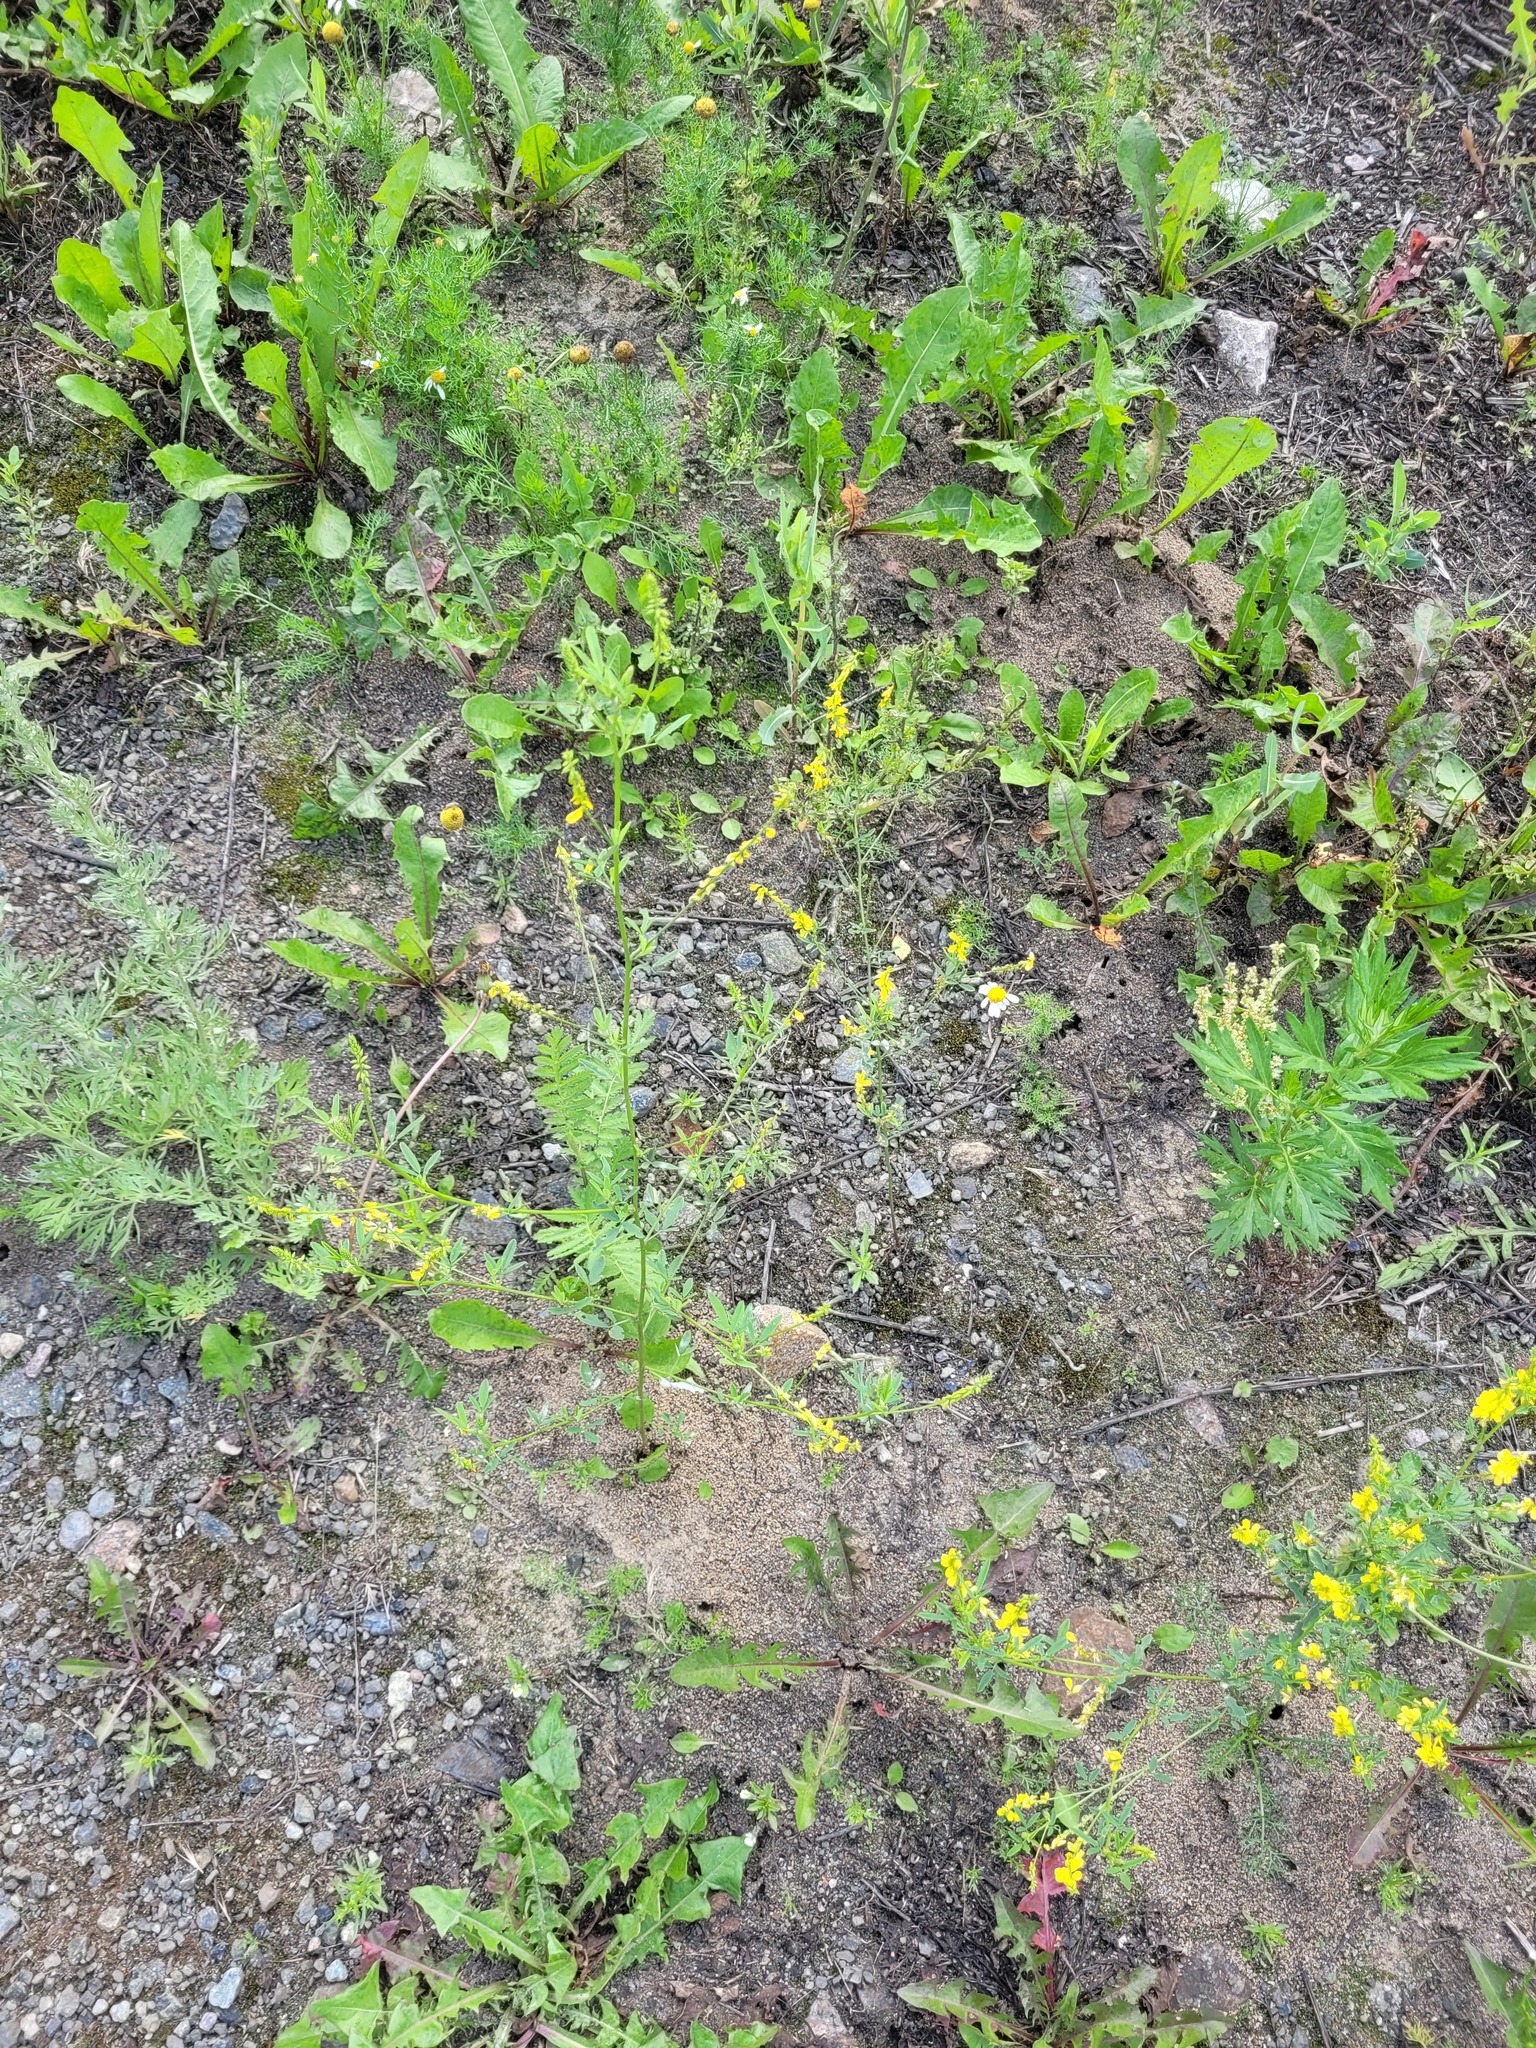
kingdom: Plantae
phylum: Tracheophyta
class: Magnoliopsida
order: Fabales
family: Fabaceae
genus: Melilotus
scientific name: Melilotus officinalis
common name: Sweetclover
